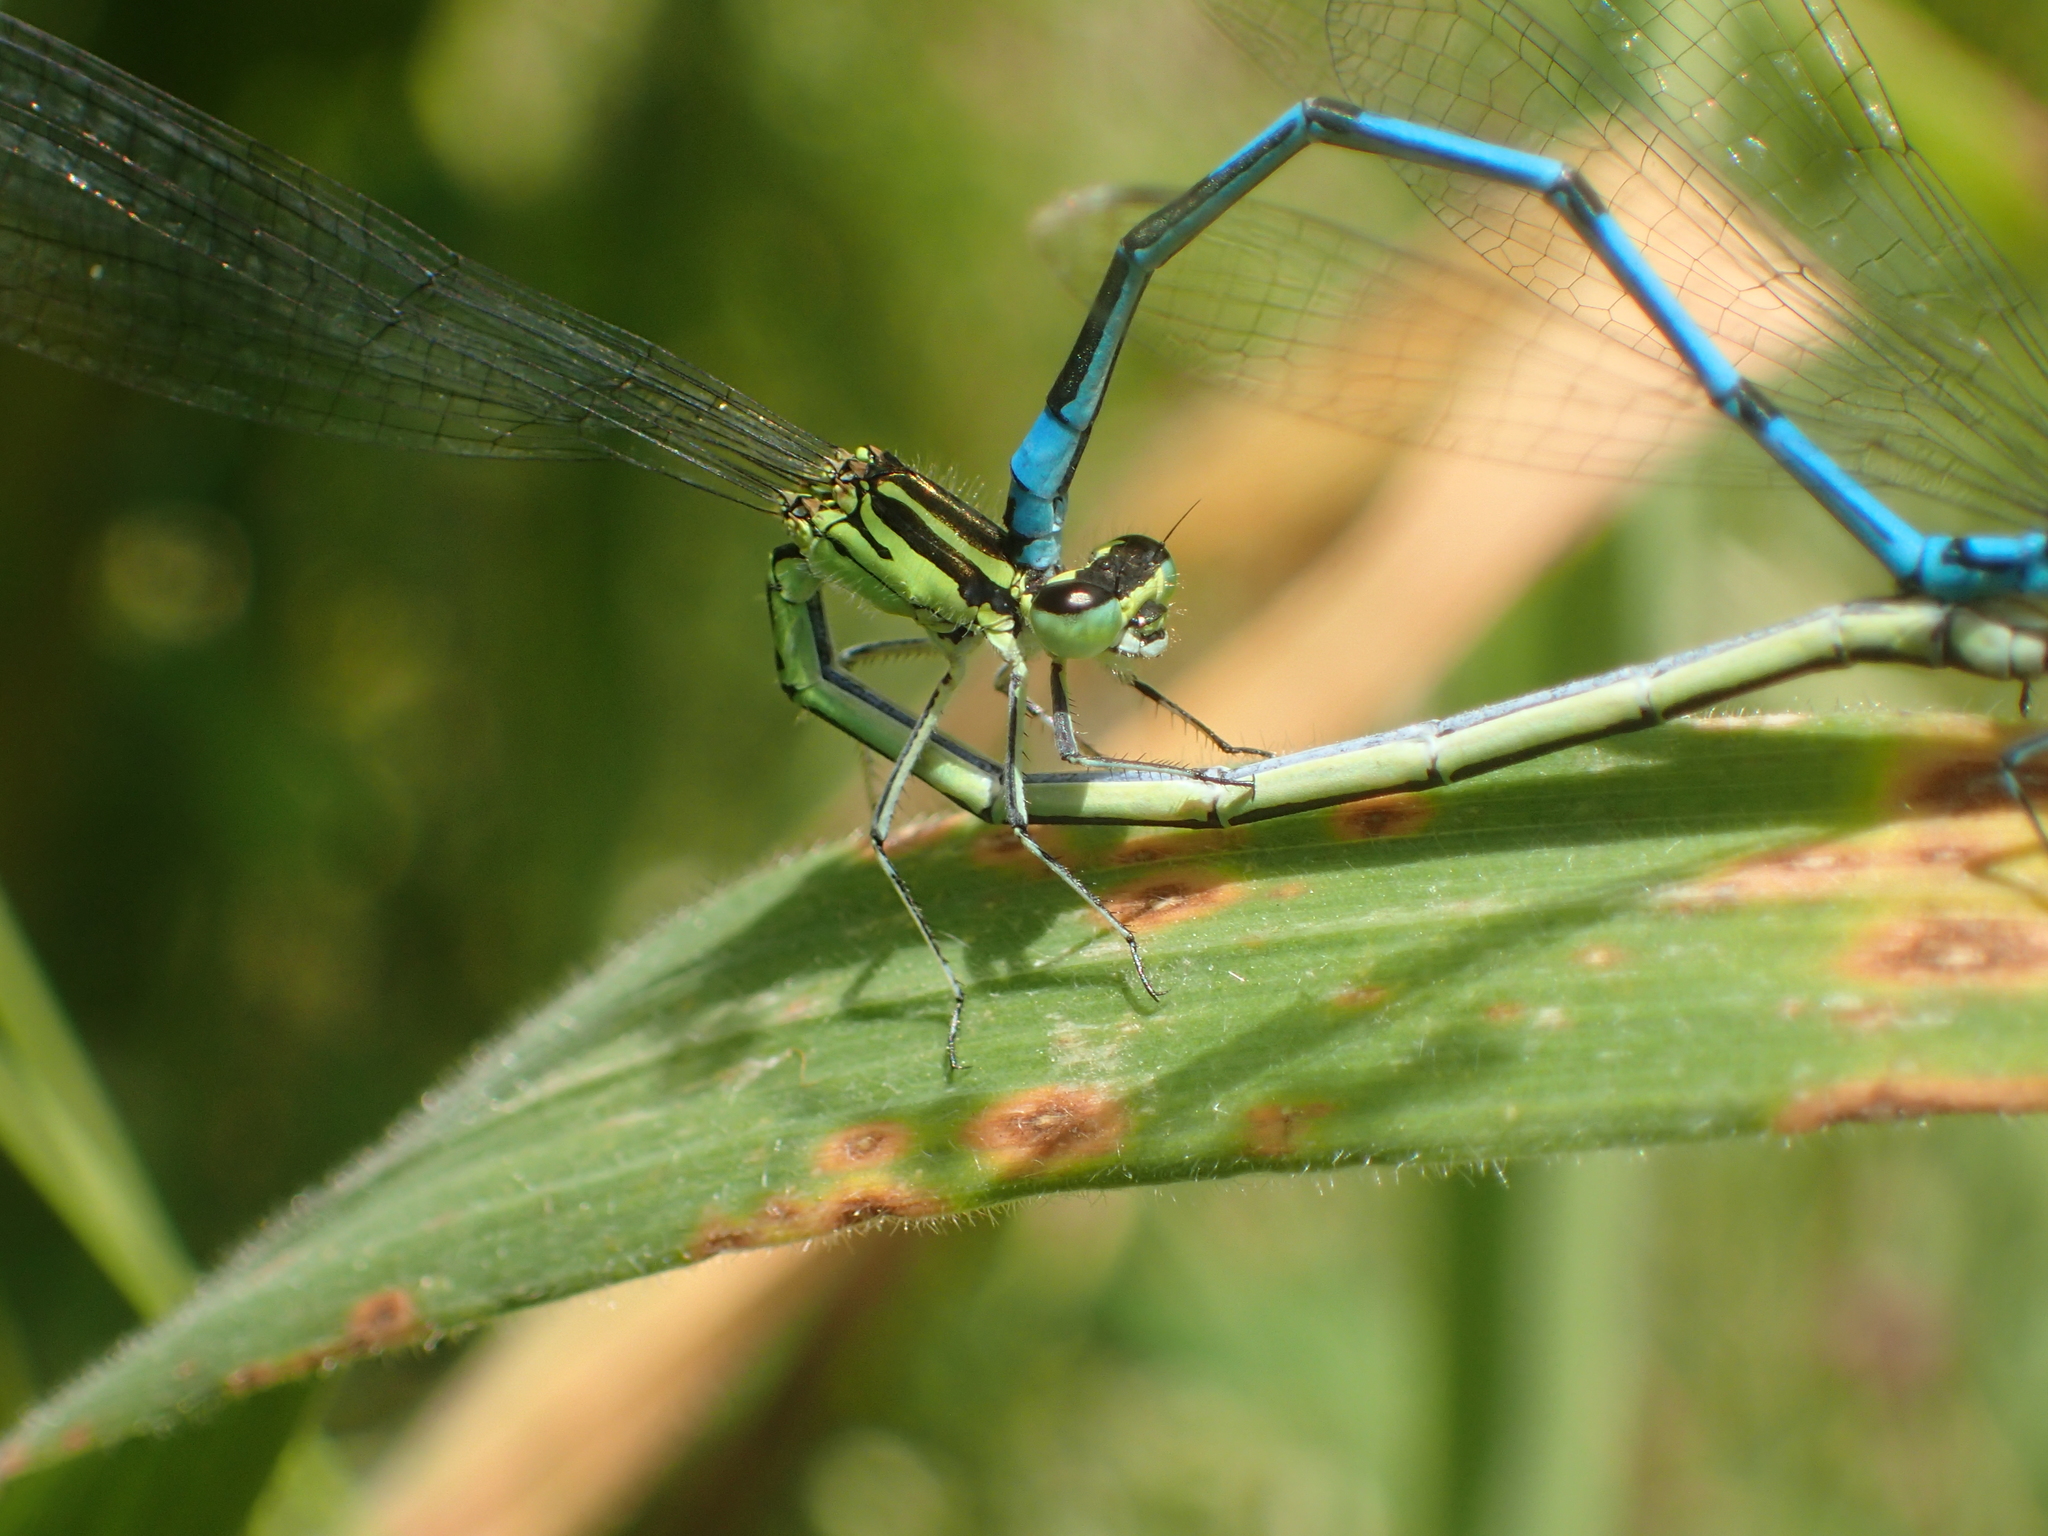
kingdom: Animalia
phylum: Arthropoda
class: Insecta
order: Odonata
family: Coenagrionidae
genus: Coenagrion
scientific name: Coenagrion puella
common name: Azure damselfly
